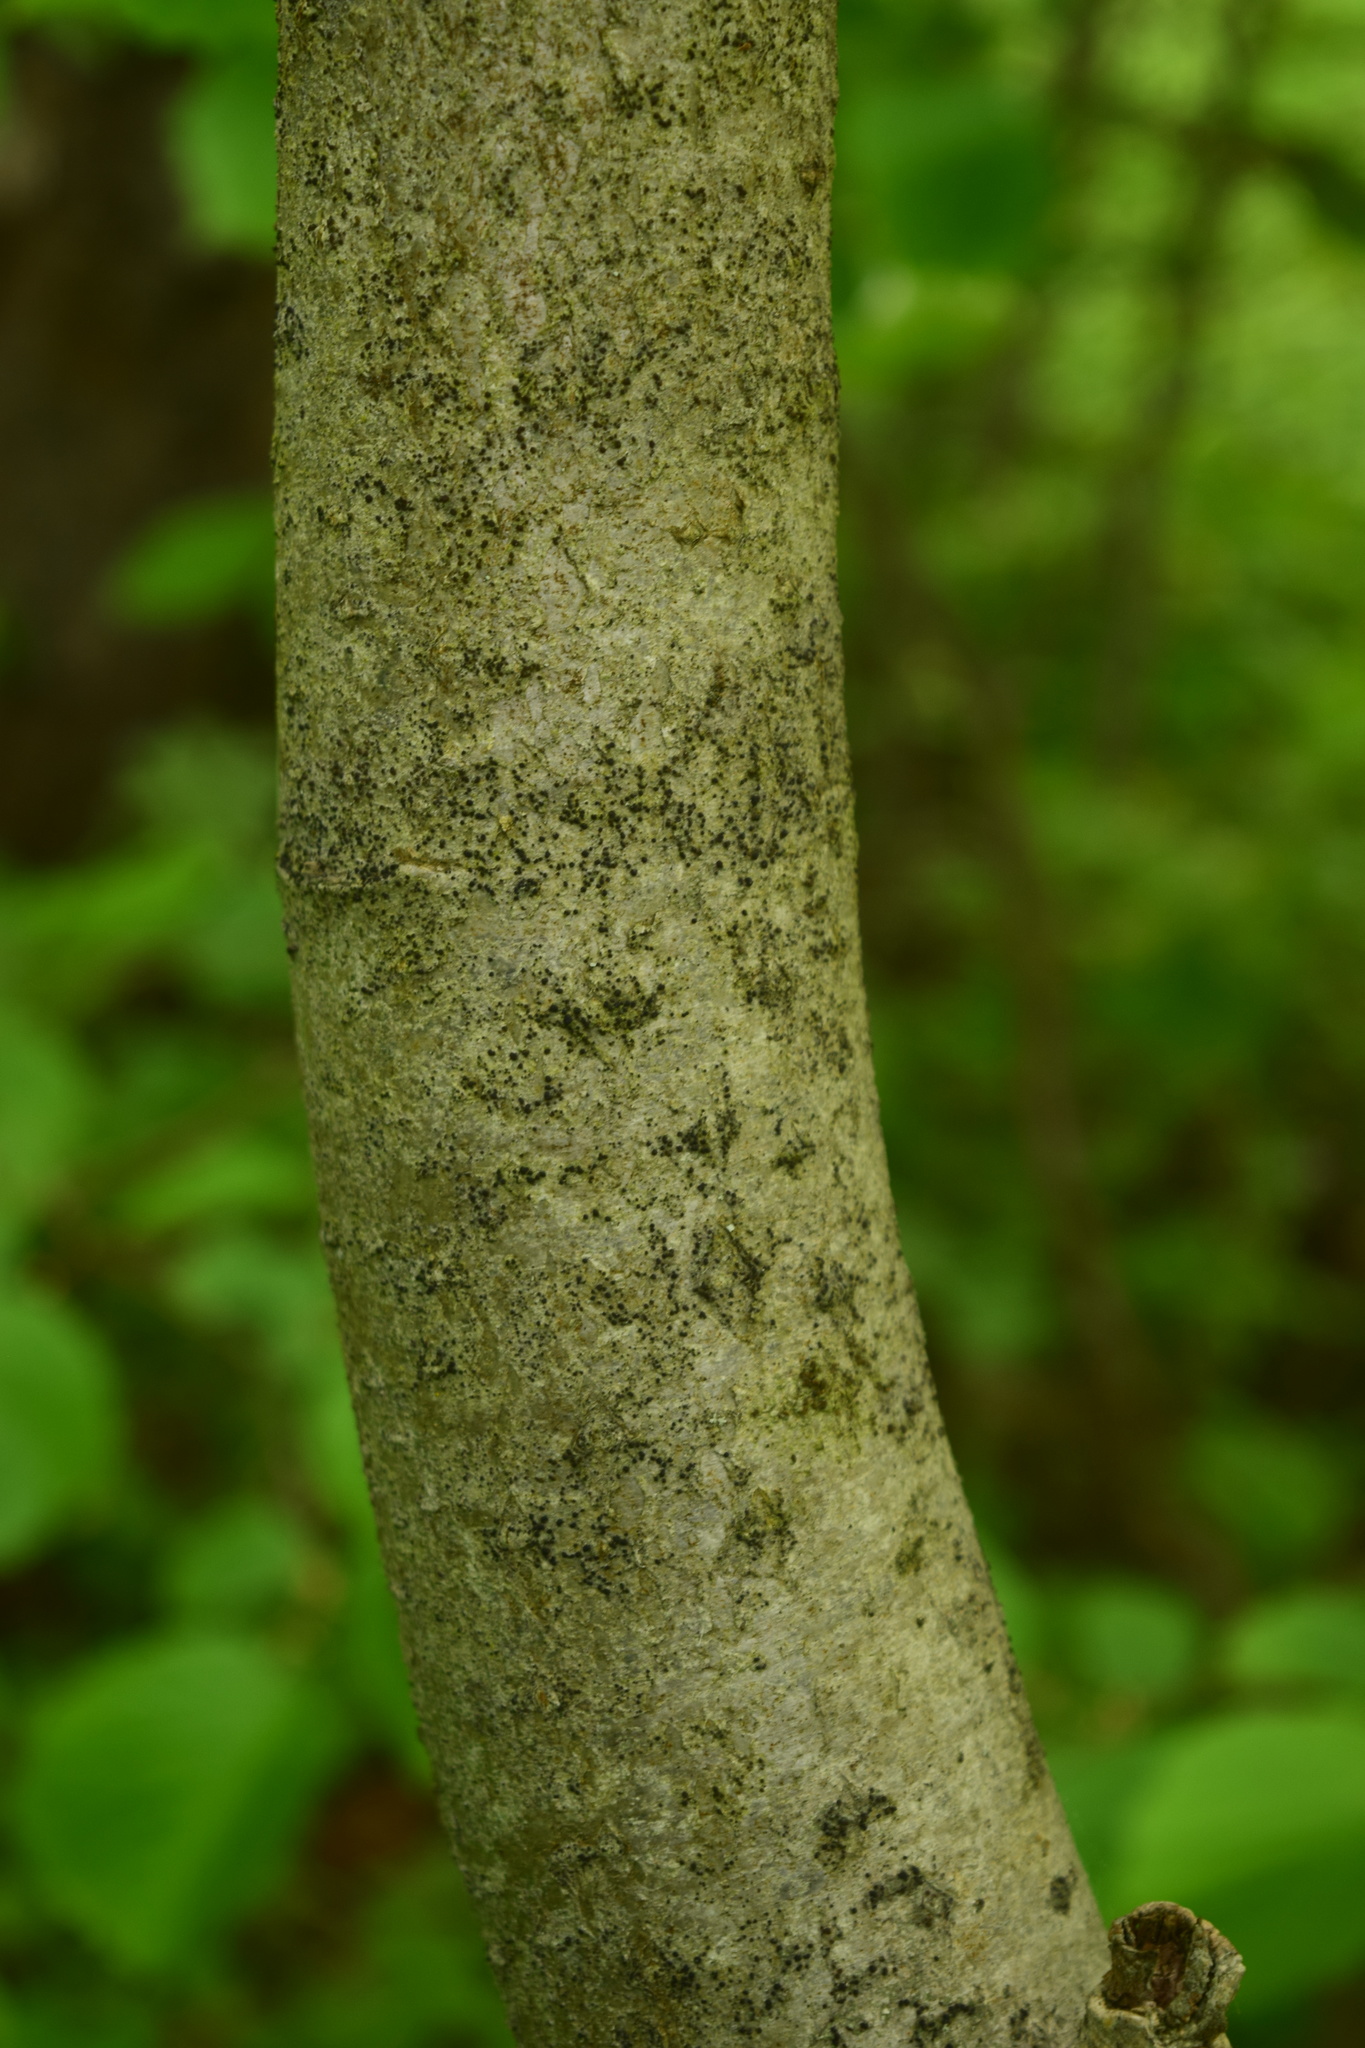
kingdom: Plantae
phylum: Tracheophyta
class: Magnoliopsida
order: Rosales
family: Rosaceae
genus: Sorbus
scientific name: Sorbus aucuparia
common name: Rowan
